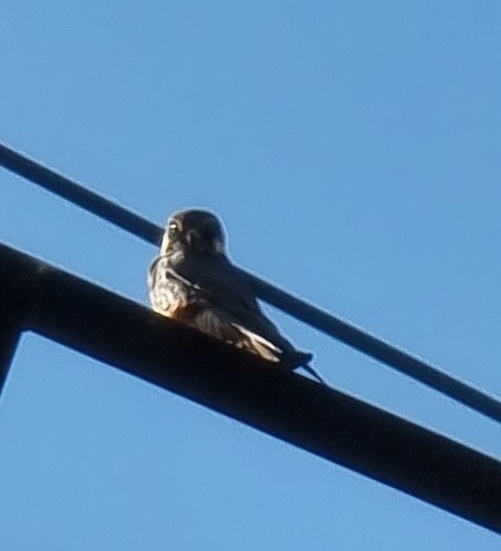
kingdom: Animalia
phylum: Chordata
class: Aves
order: Falconiformes
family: Falconidae
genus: Falco
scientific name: Falco subbuteo
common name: Eurasian hobby
